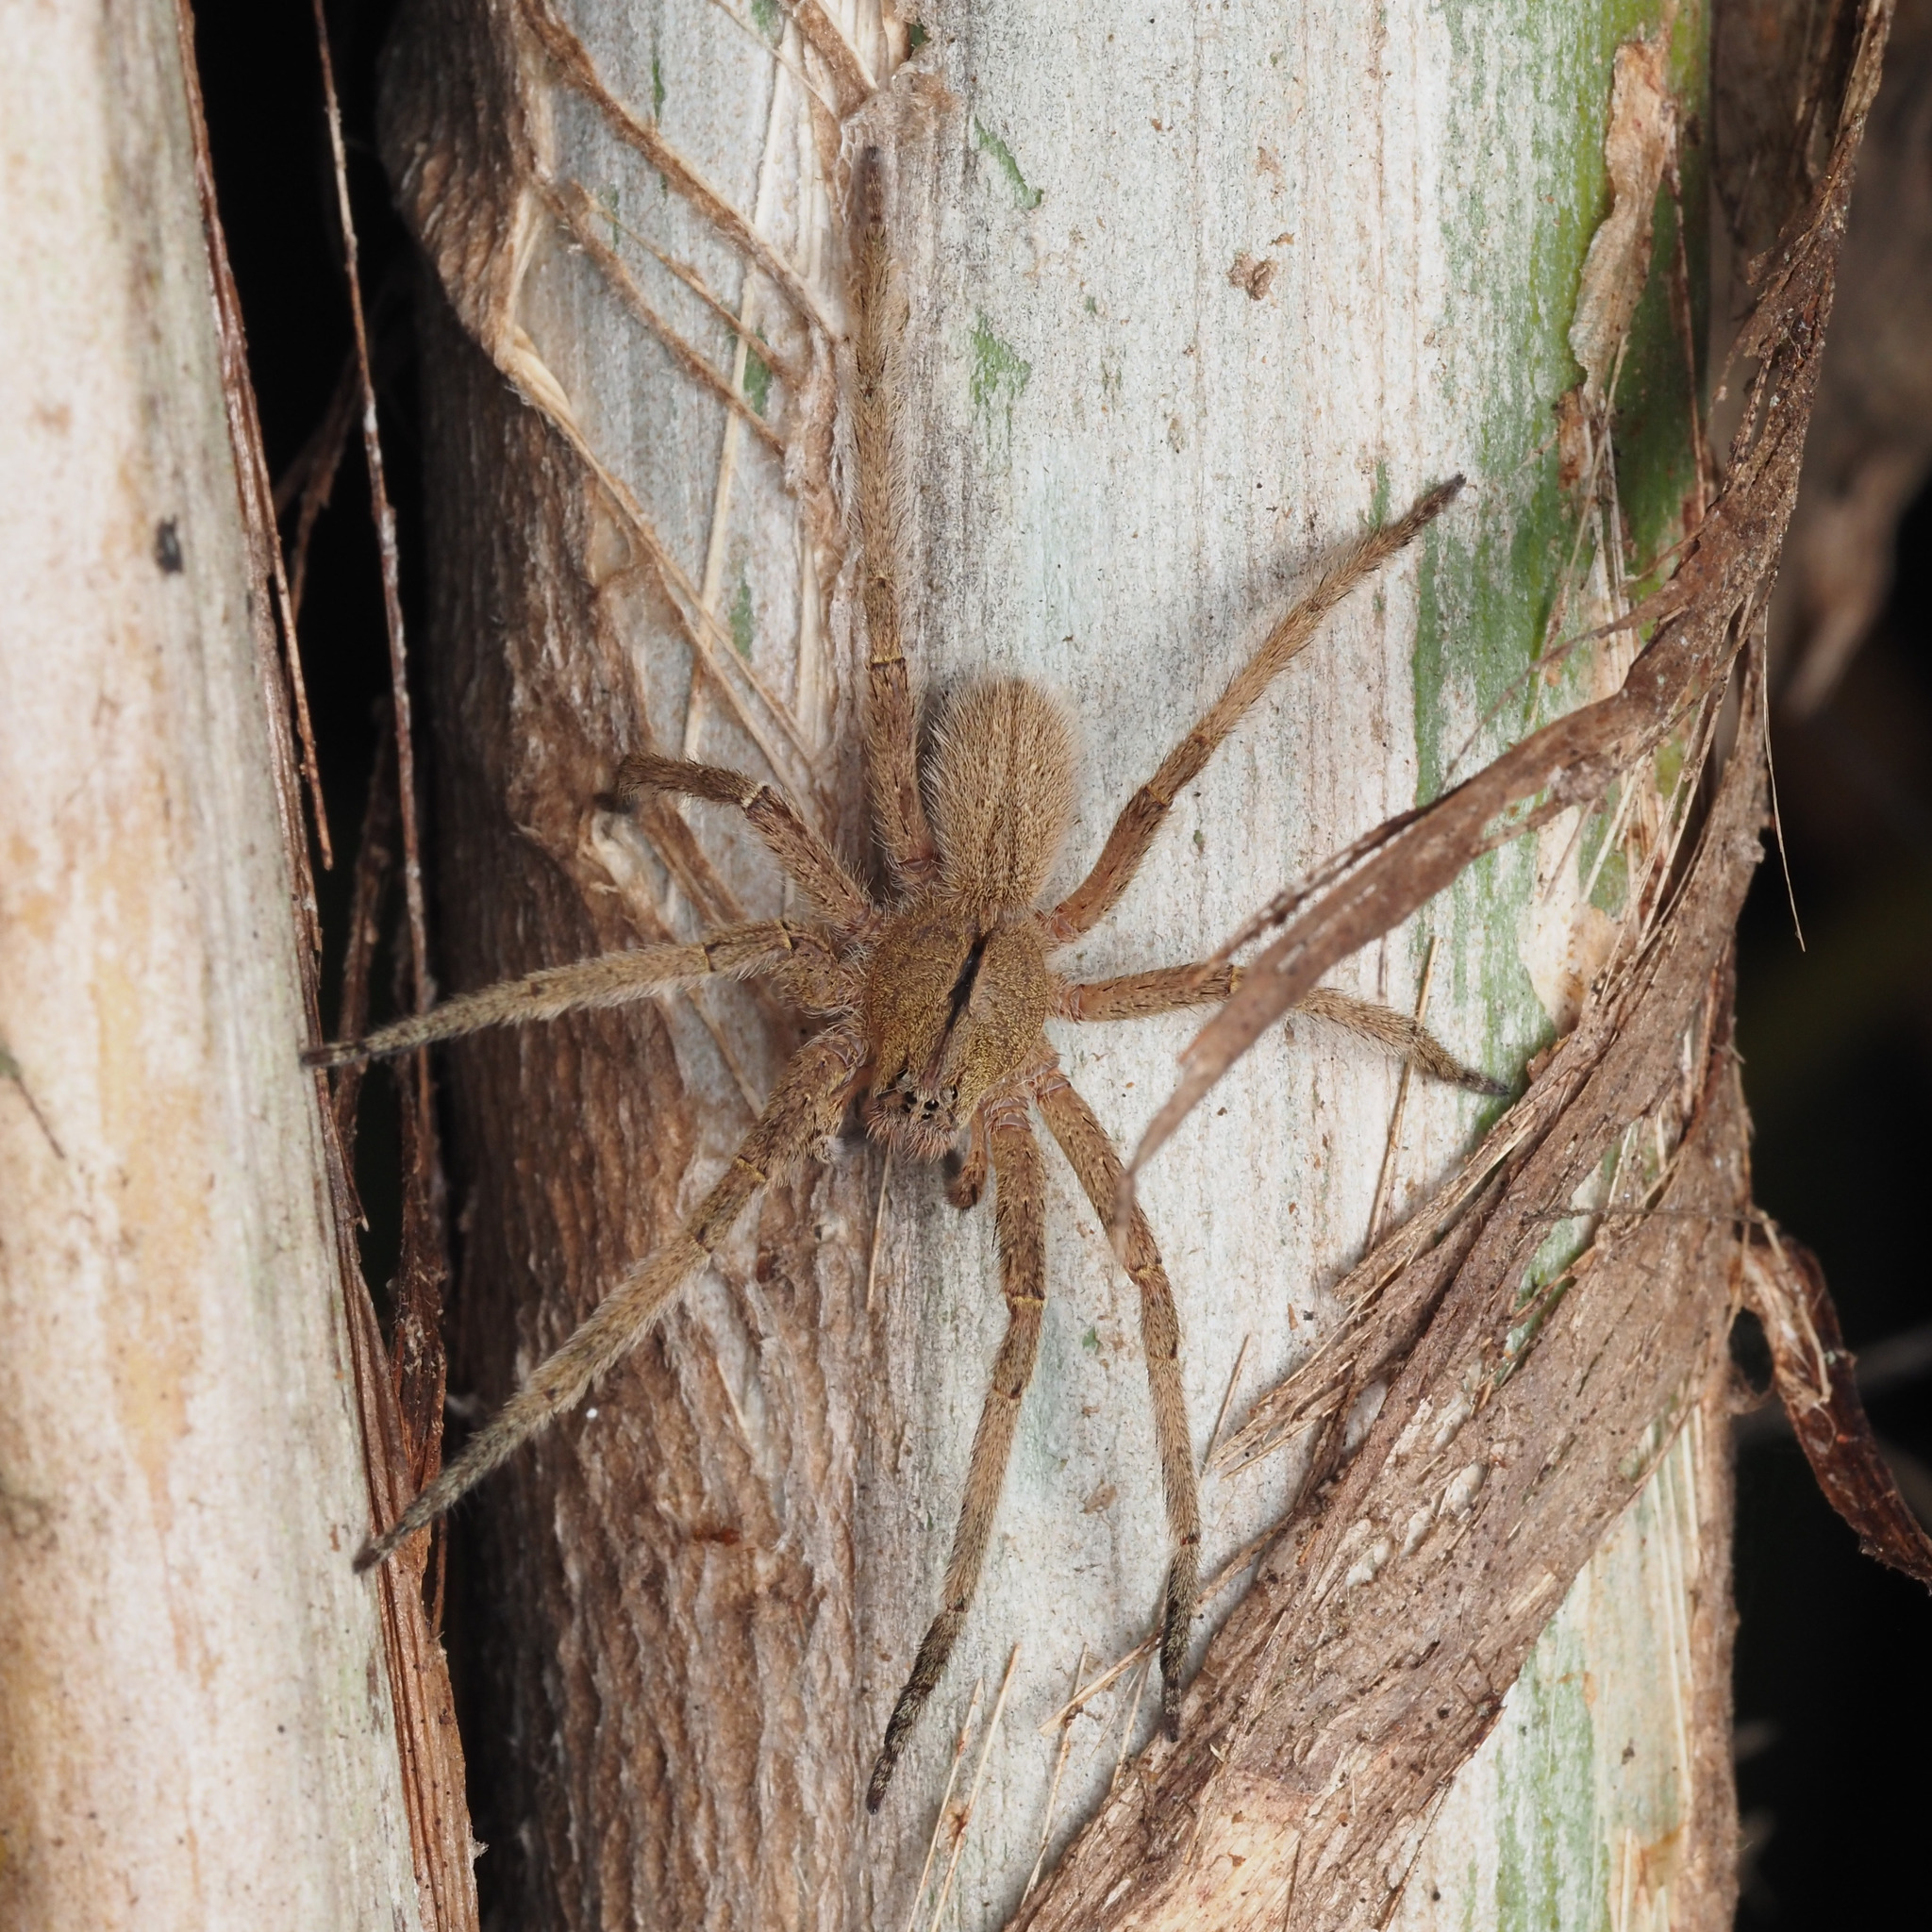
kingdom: Animalia
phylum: Arthropoda
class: Arachnida
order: Araneae
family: Ctenidae
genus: Phoneutria
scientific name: Phoneutria depilata
